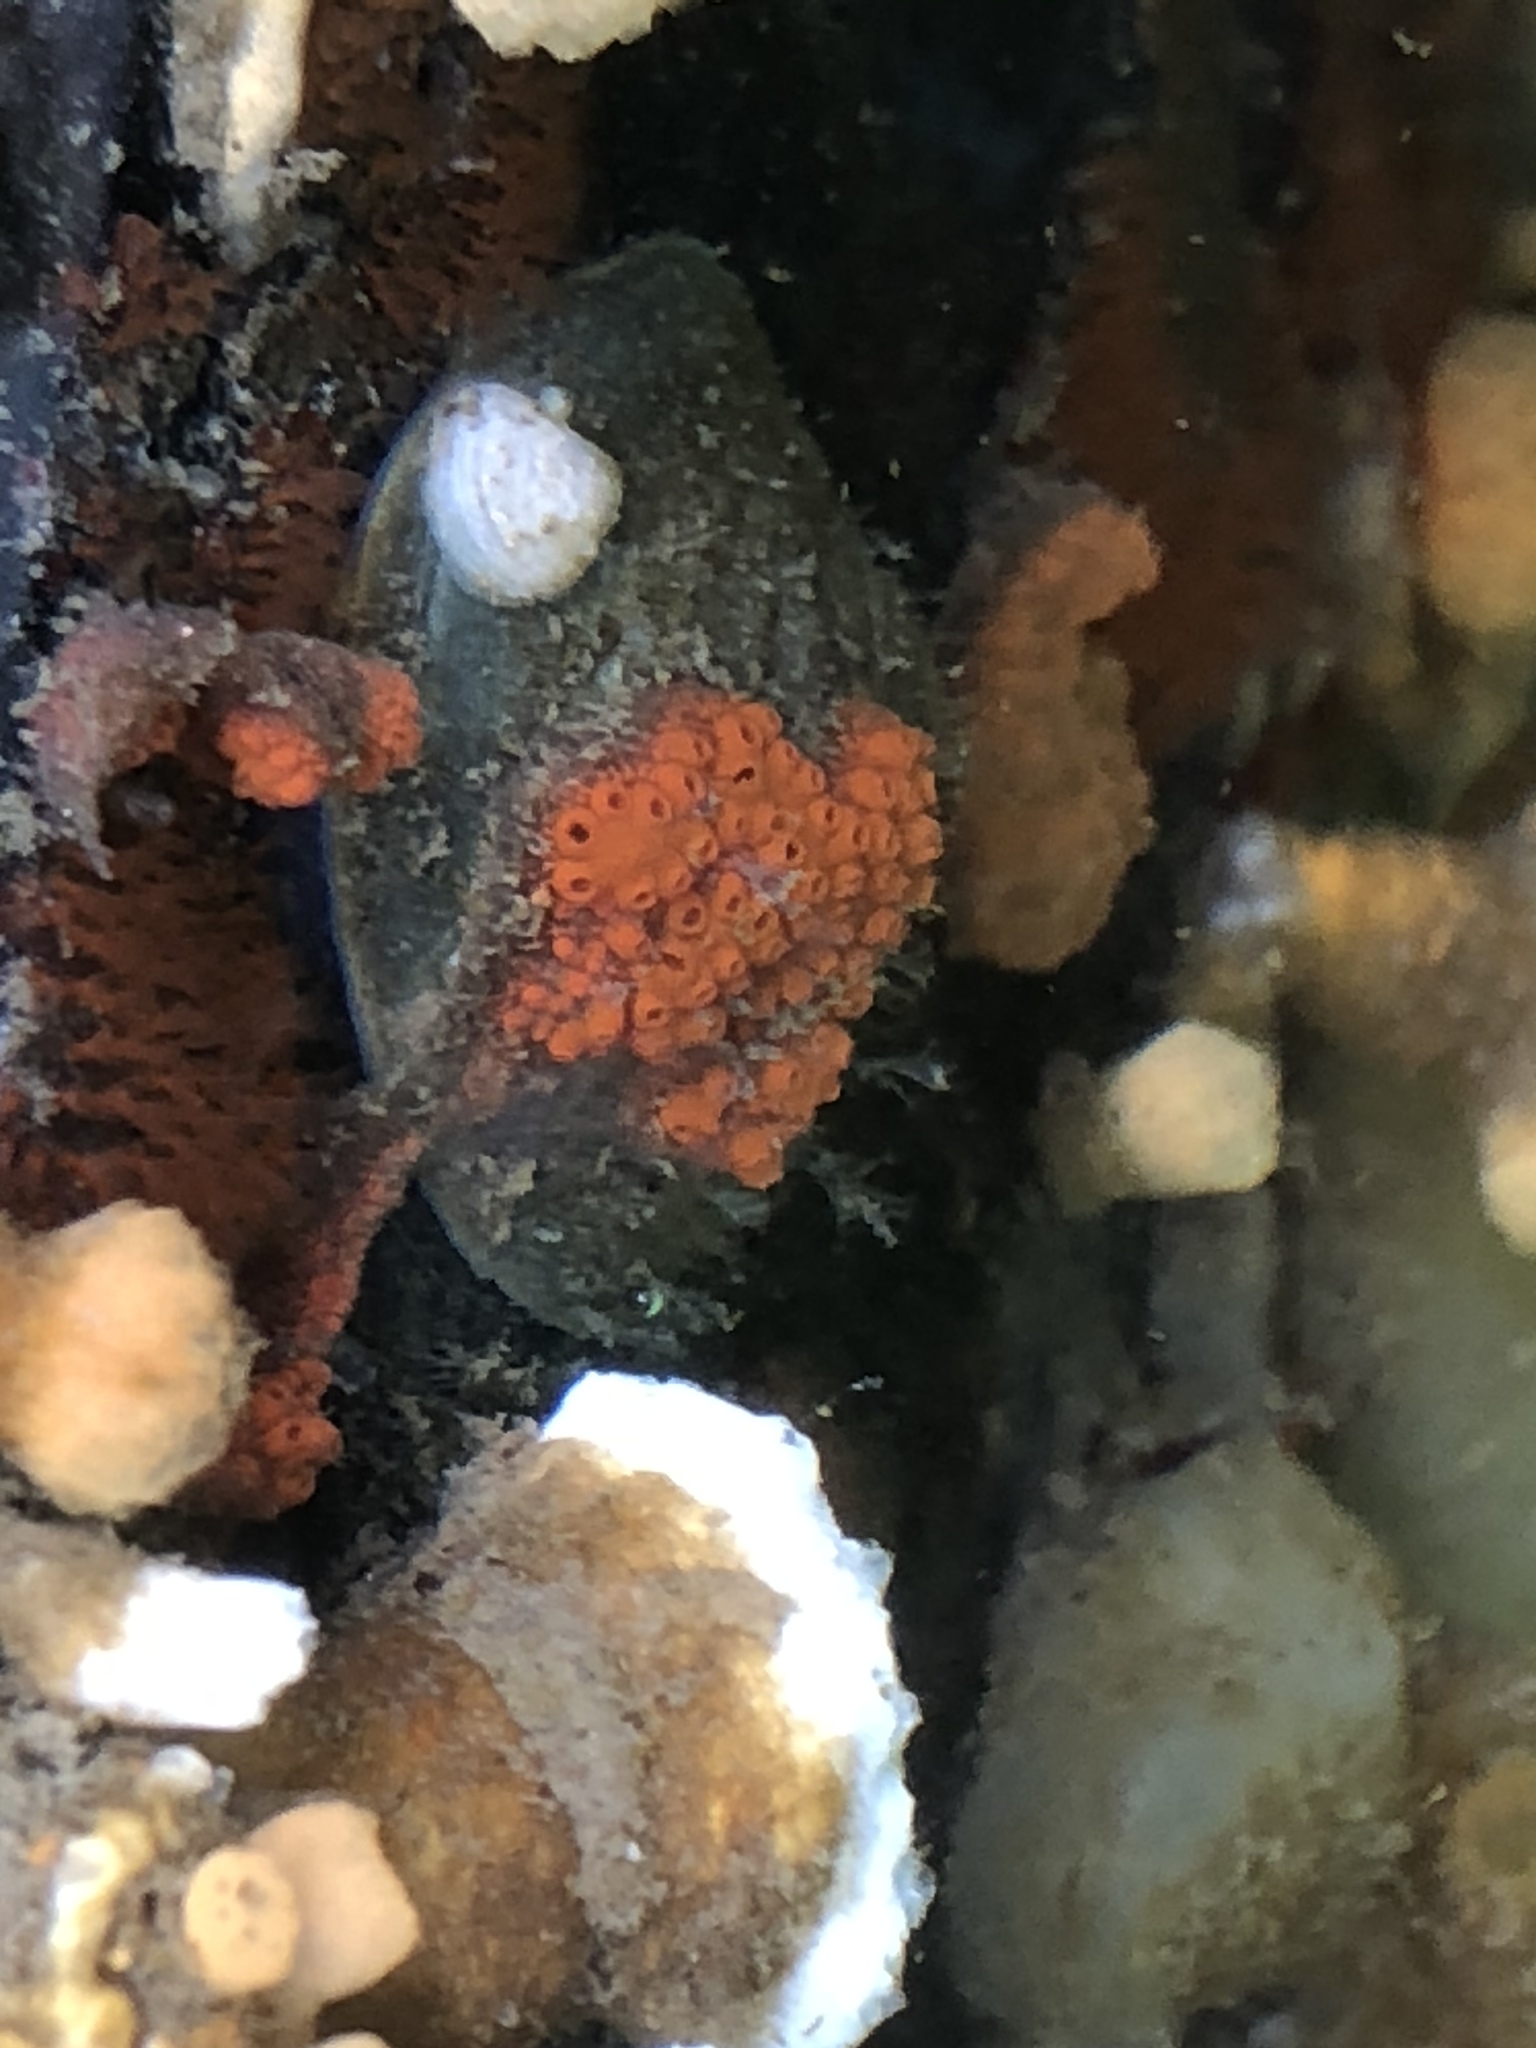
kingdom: Animalia
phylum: Chordata
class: Ascidiacea
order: Stolidobranchia
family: Styelidae
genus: Botrylloides
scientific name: Botrylloides violaceus
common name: Colonial sea squirt
